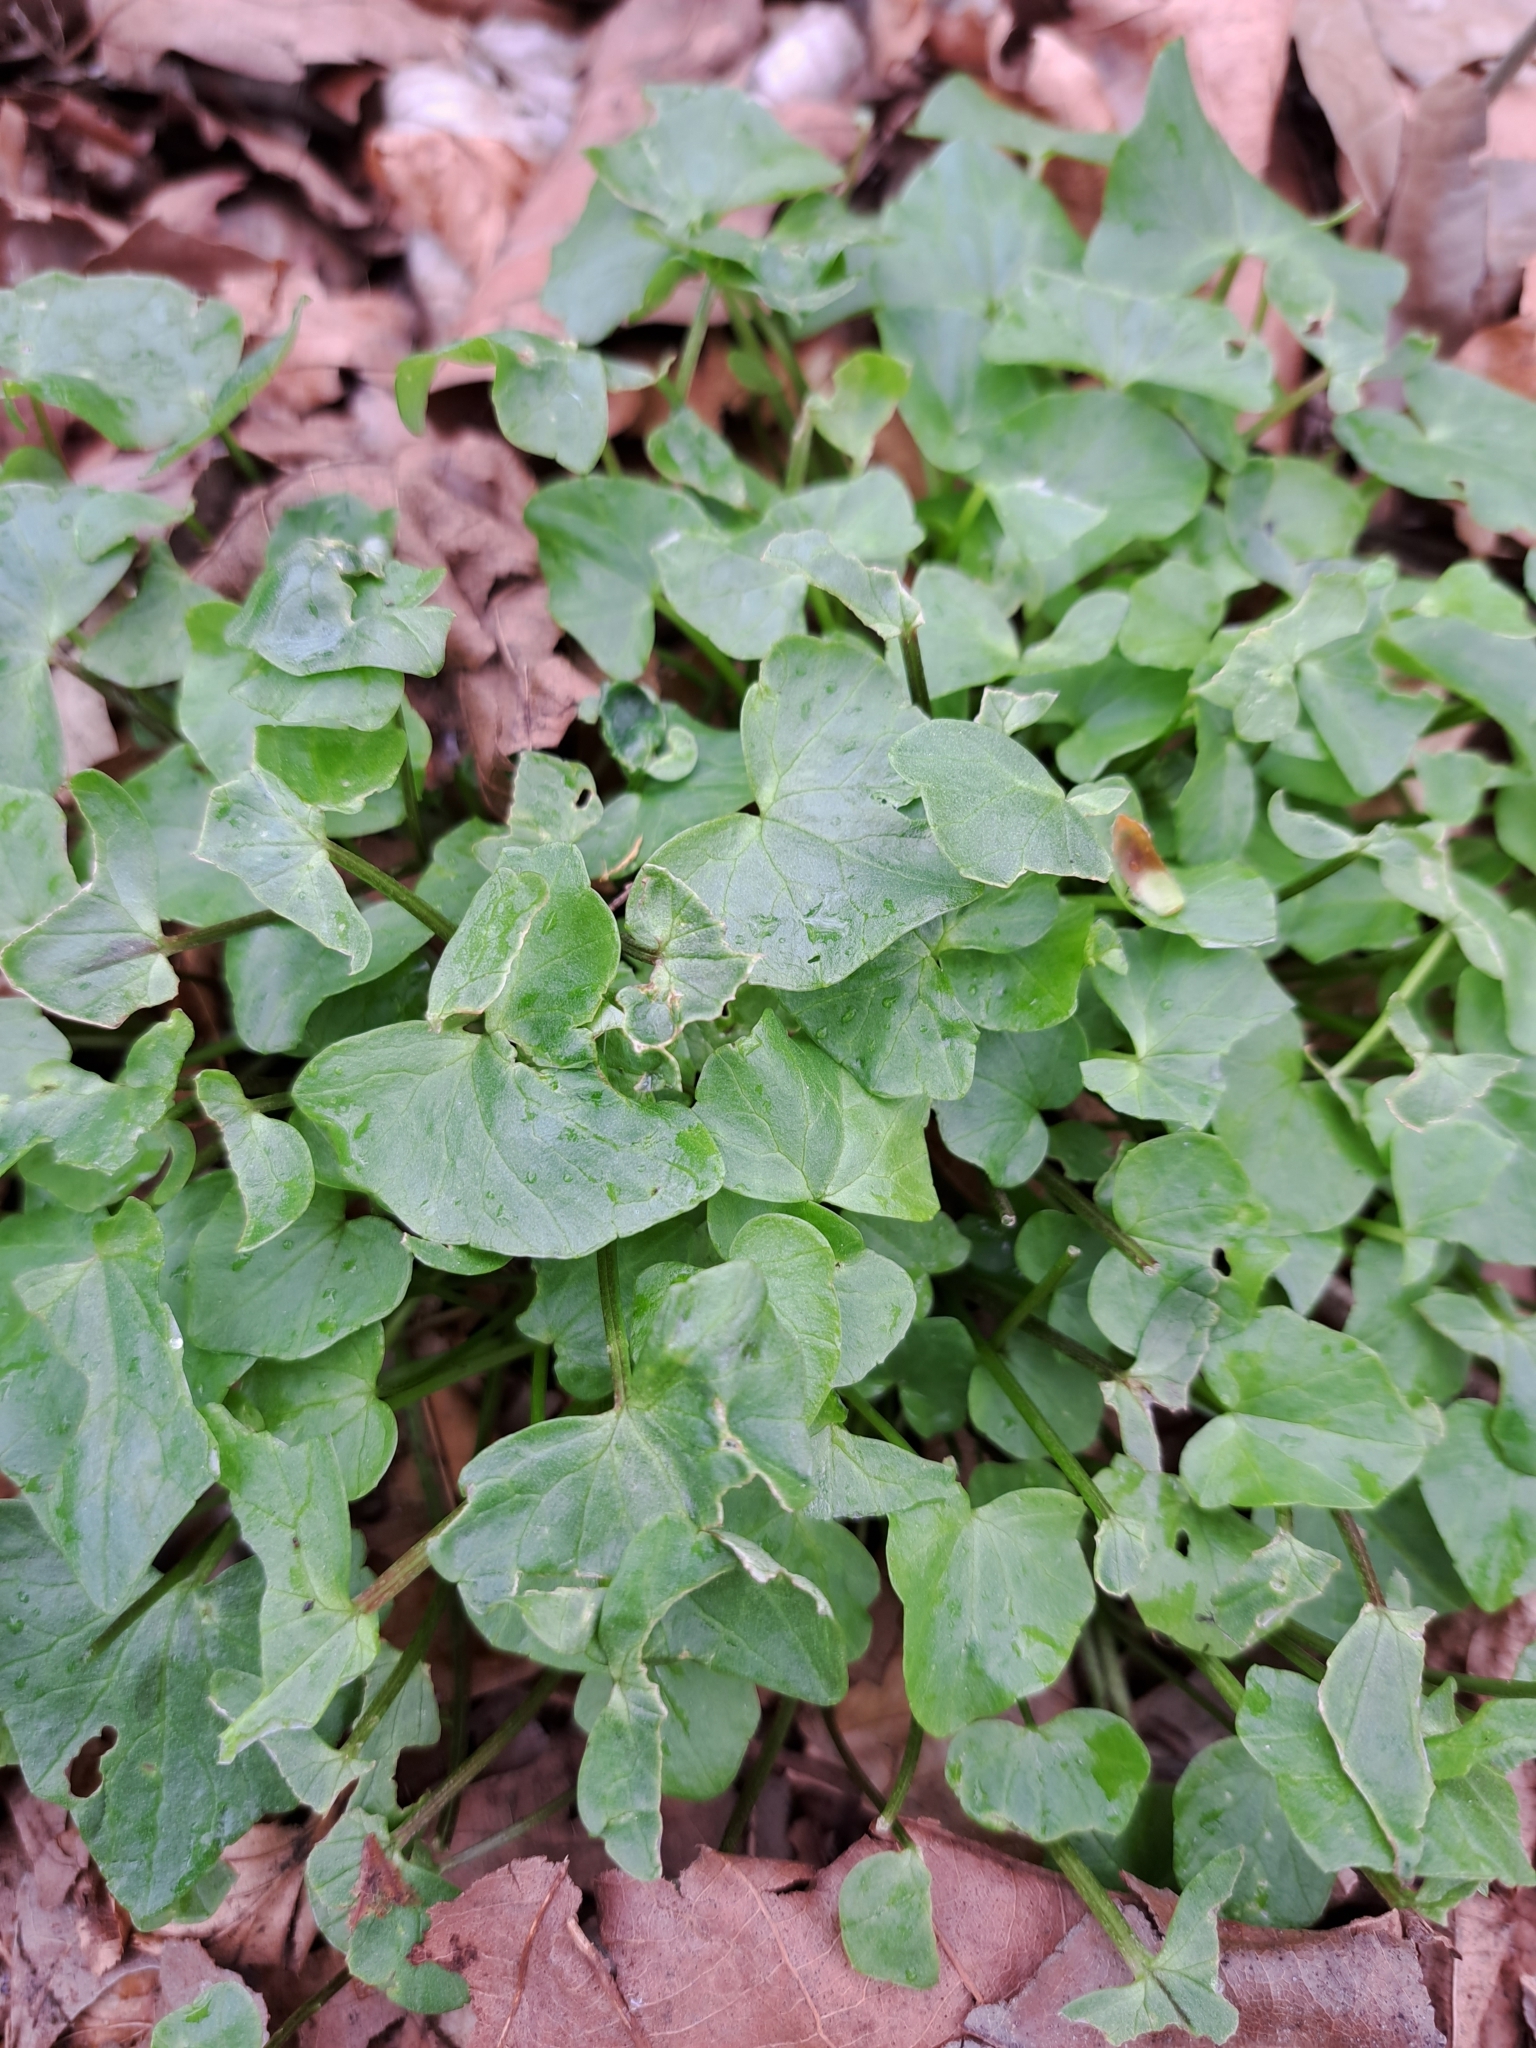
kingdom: Plantae
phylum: Tracheophyta
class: Magnoliopsida
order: Ranunculales
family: Ranunculaceae
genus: Ficaria
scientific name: Ficaria verna
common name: Lesser celandine
